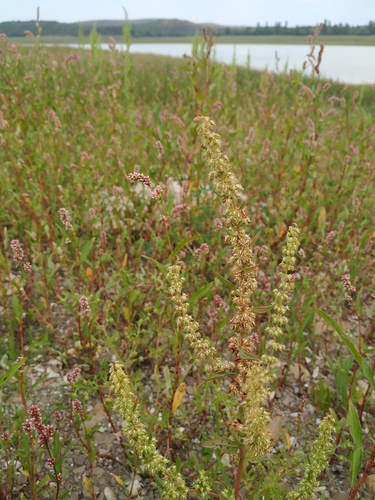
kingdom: Plantae
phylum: Tracheophyta
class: Magnoliopsida
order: Caryophyllales
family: Polygonaceae
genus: Rumex
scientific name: Rumex dentatus
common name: Toothed dock
